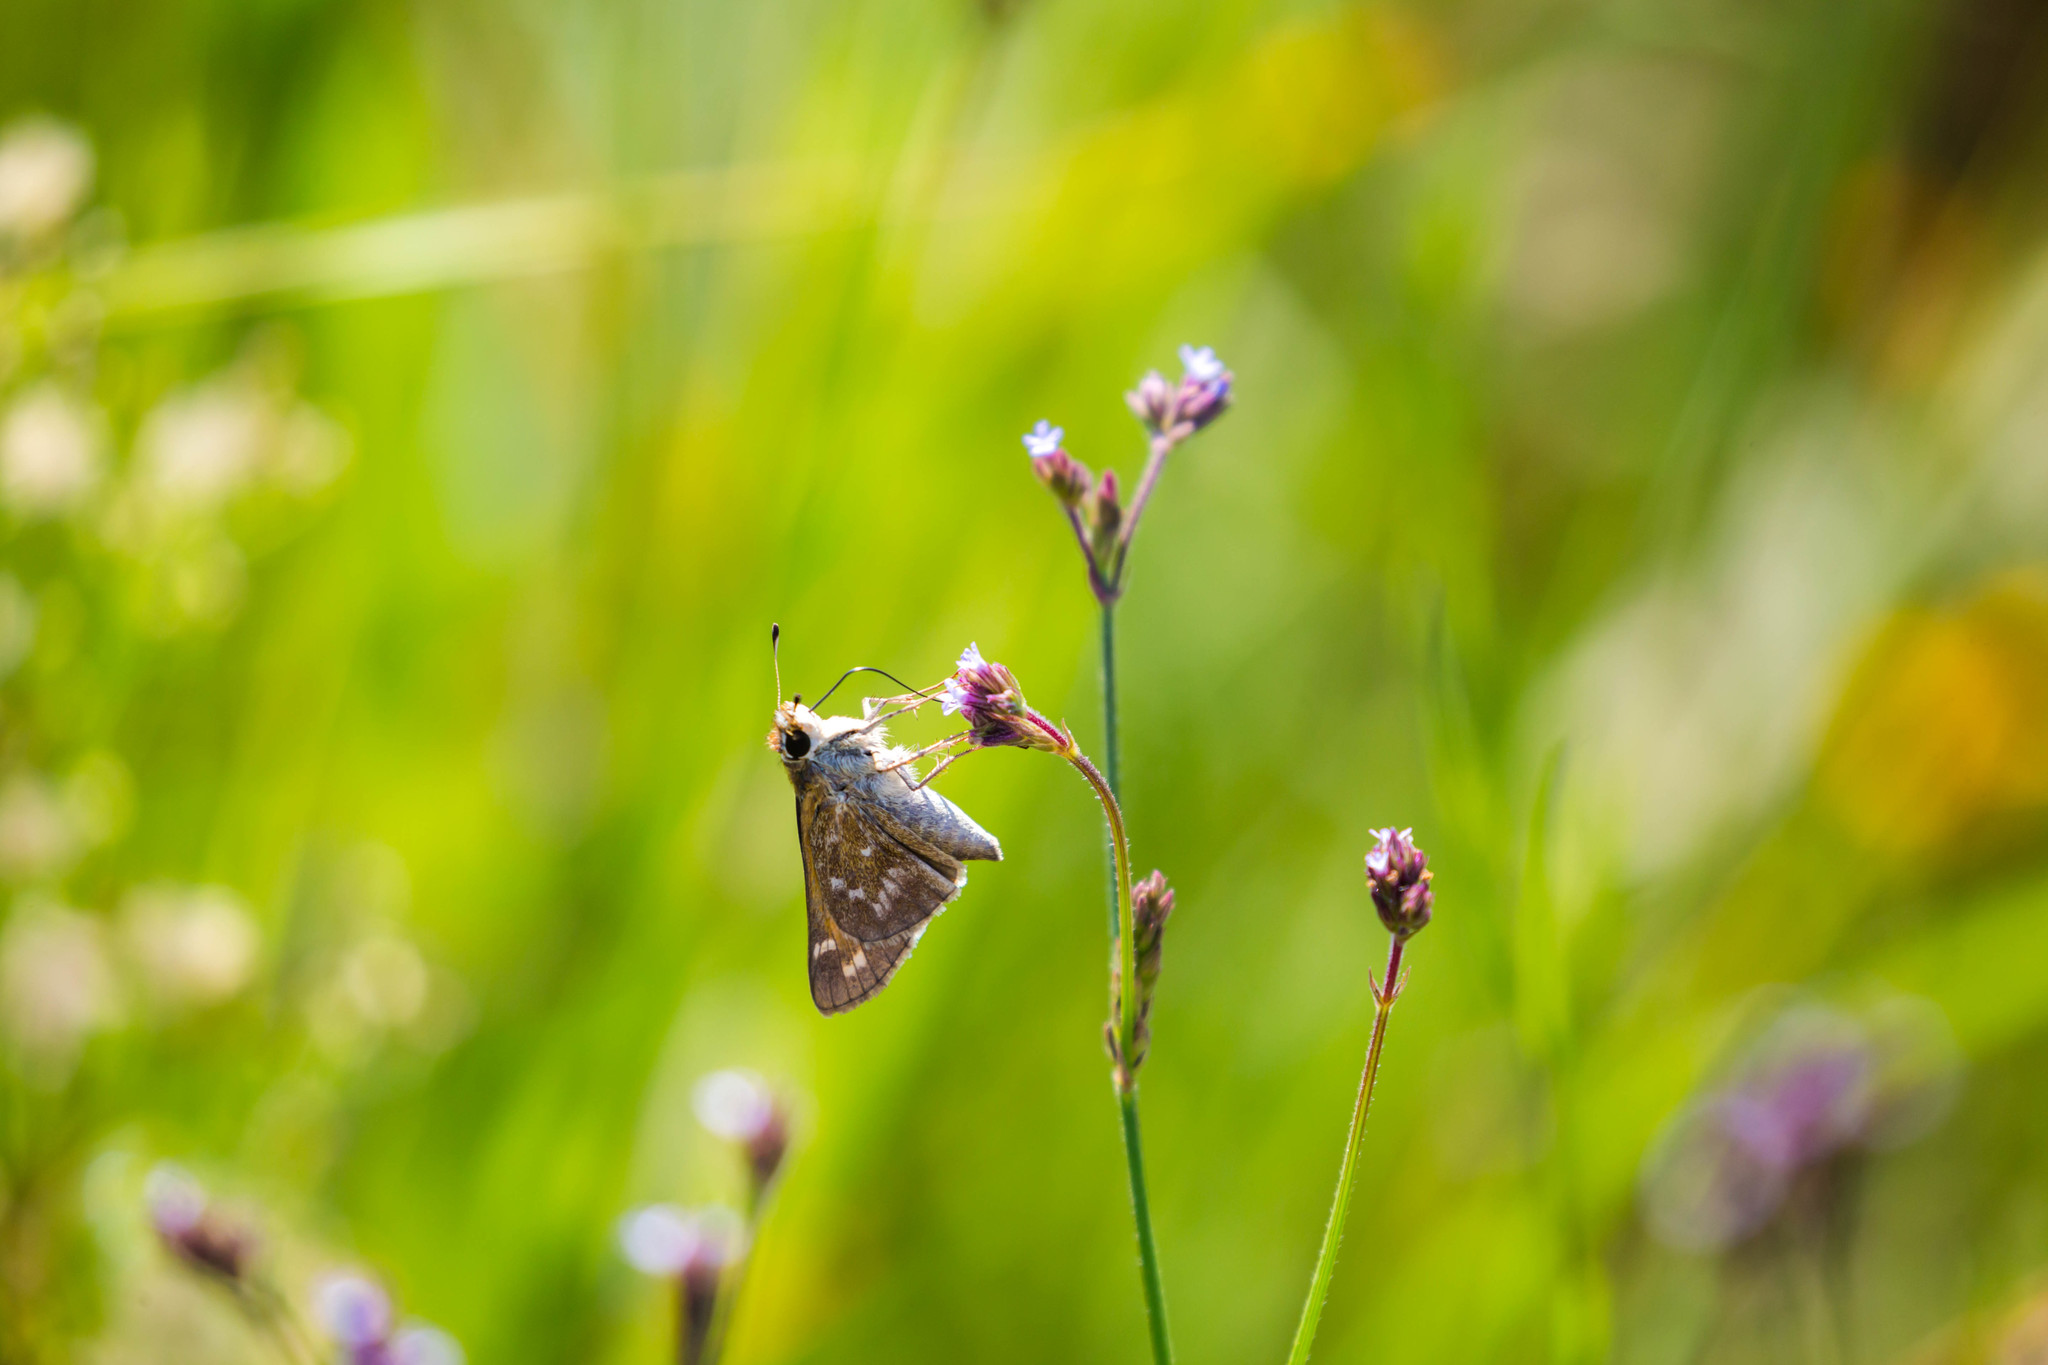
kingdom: Animalia
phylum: Arthropoda
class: Insecta
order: Lepidoptera
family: Hesperiidae
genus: Atalopedes
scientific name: Atalopedes
